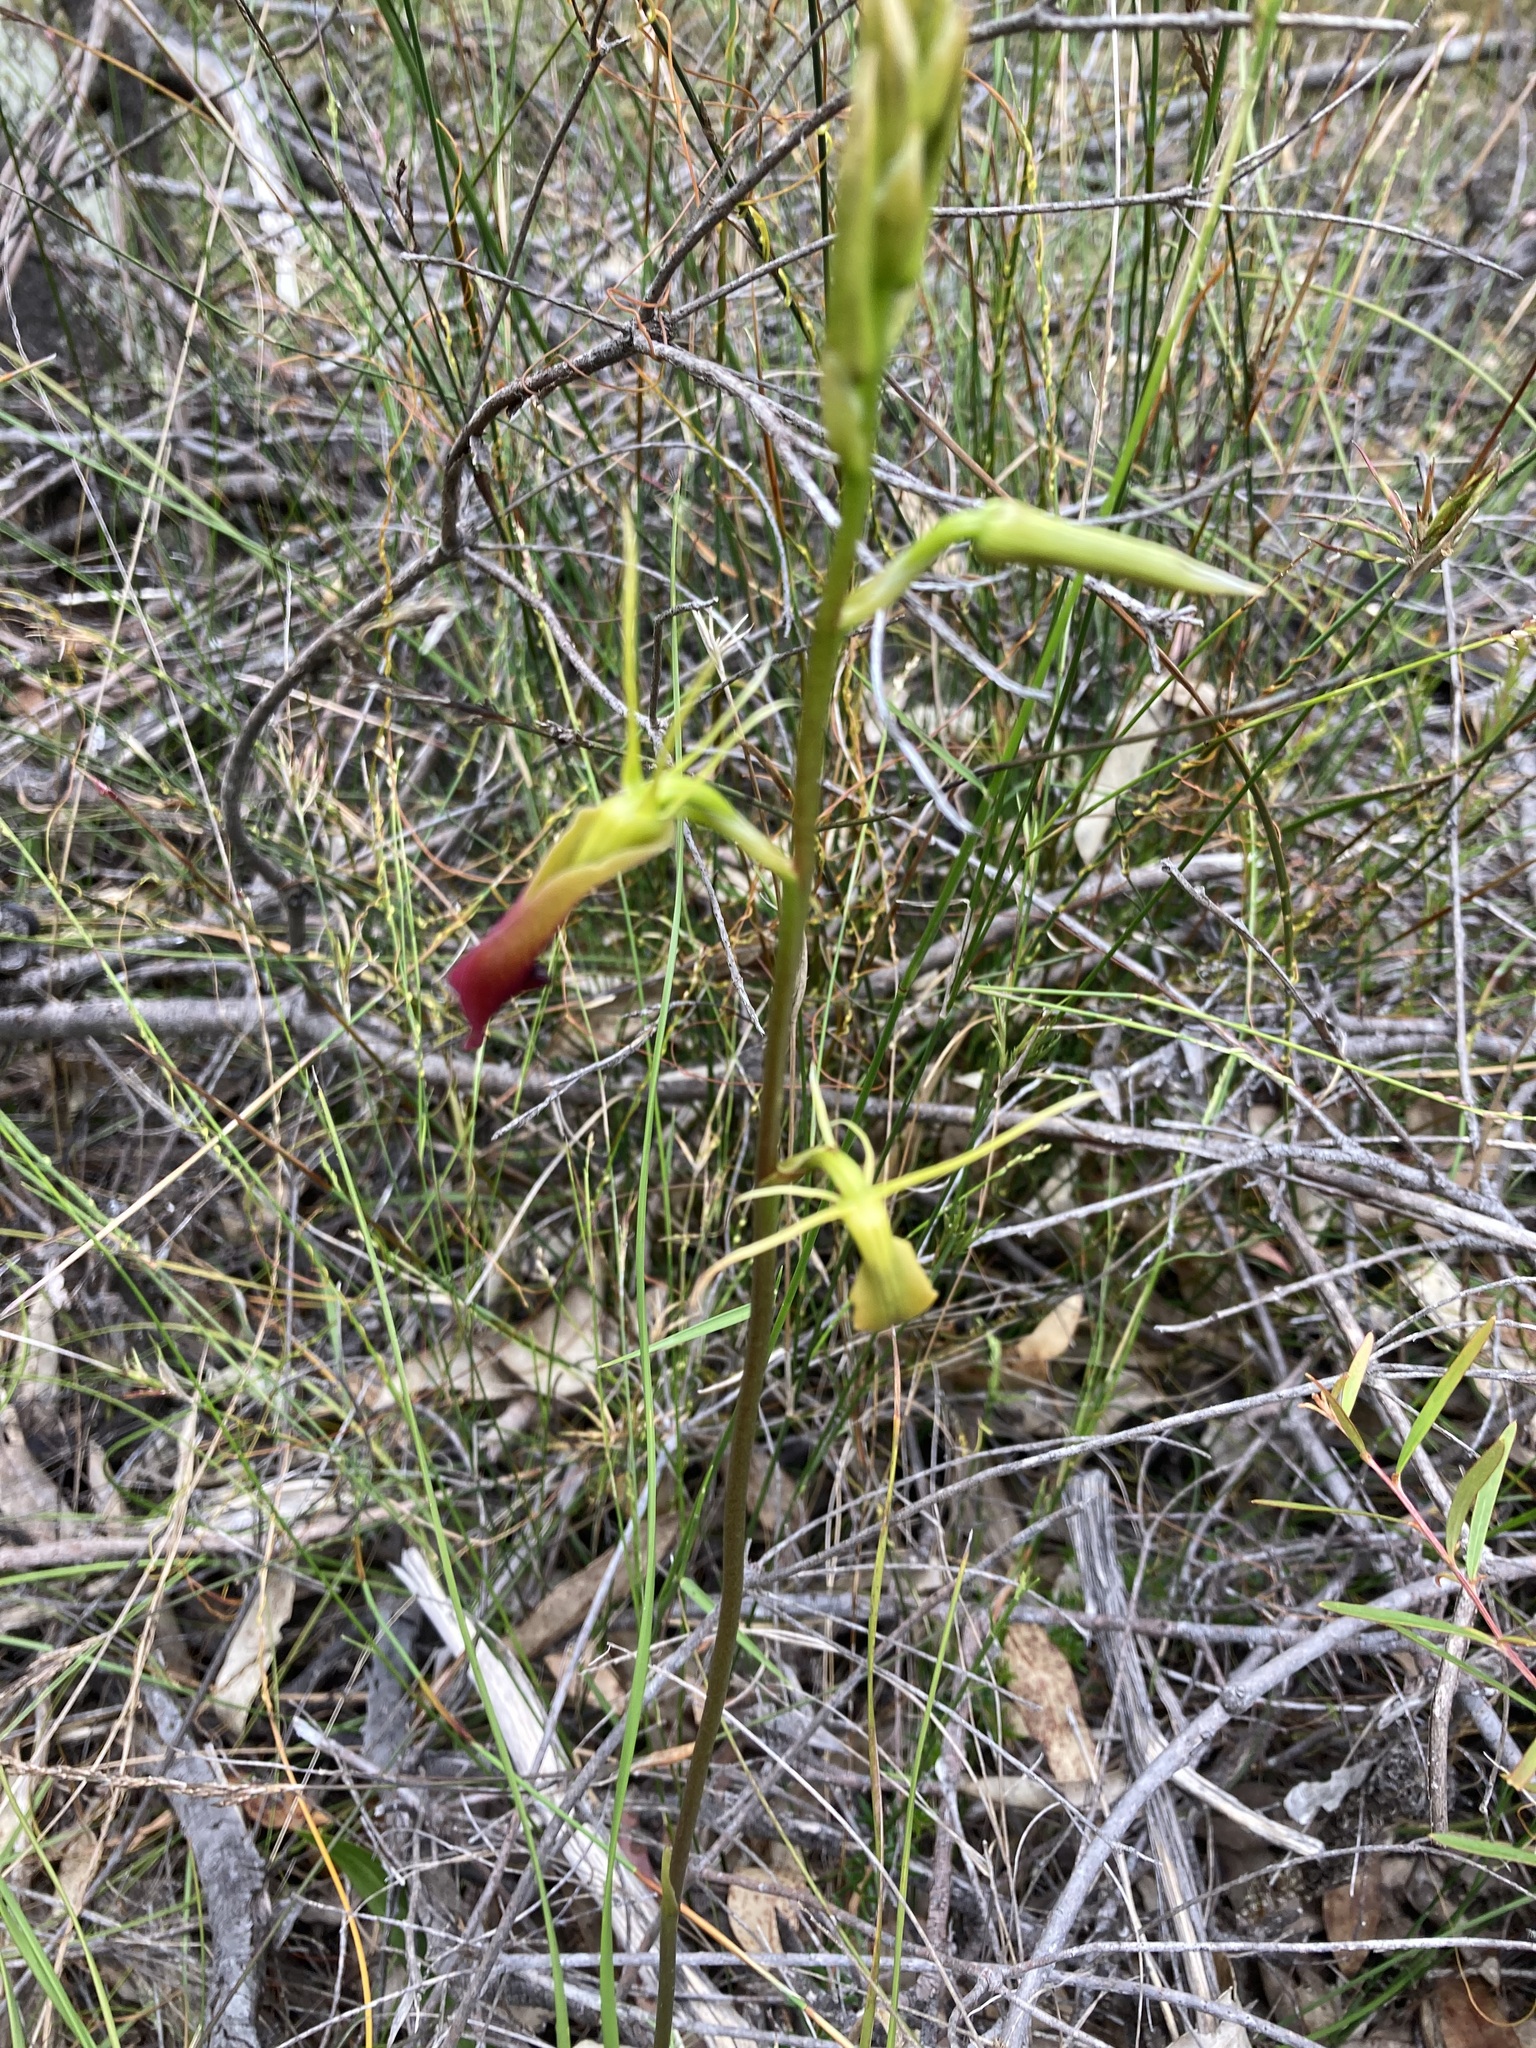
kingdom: Plantae
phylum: Tracheophyta
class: Liliopsida
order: Asparagales
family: Orchidaceae
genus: Cryptostylis
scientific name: Cryptostylis subulata
